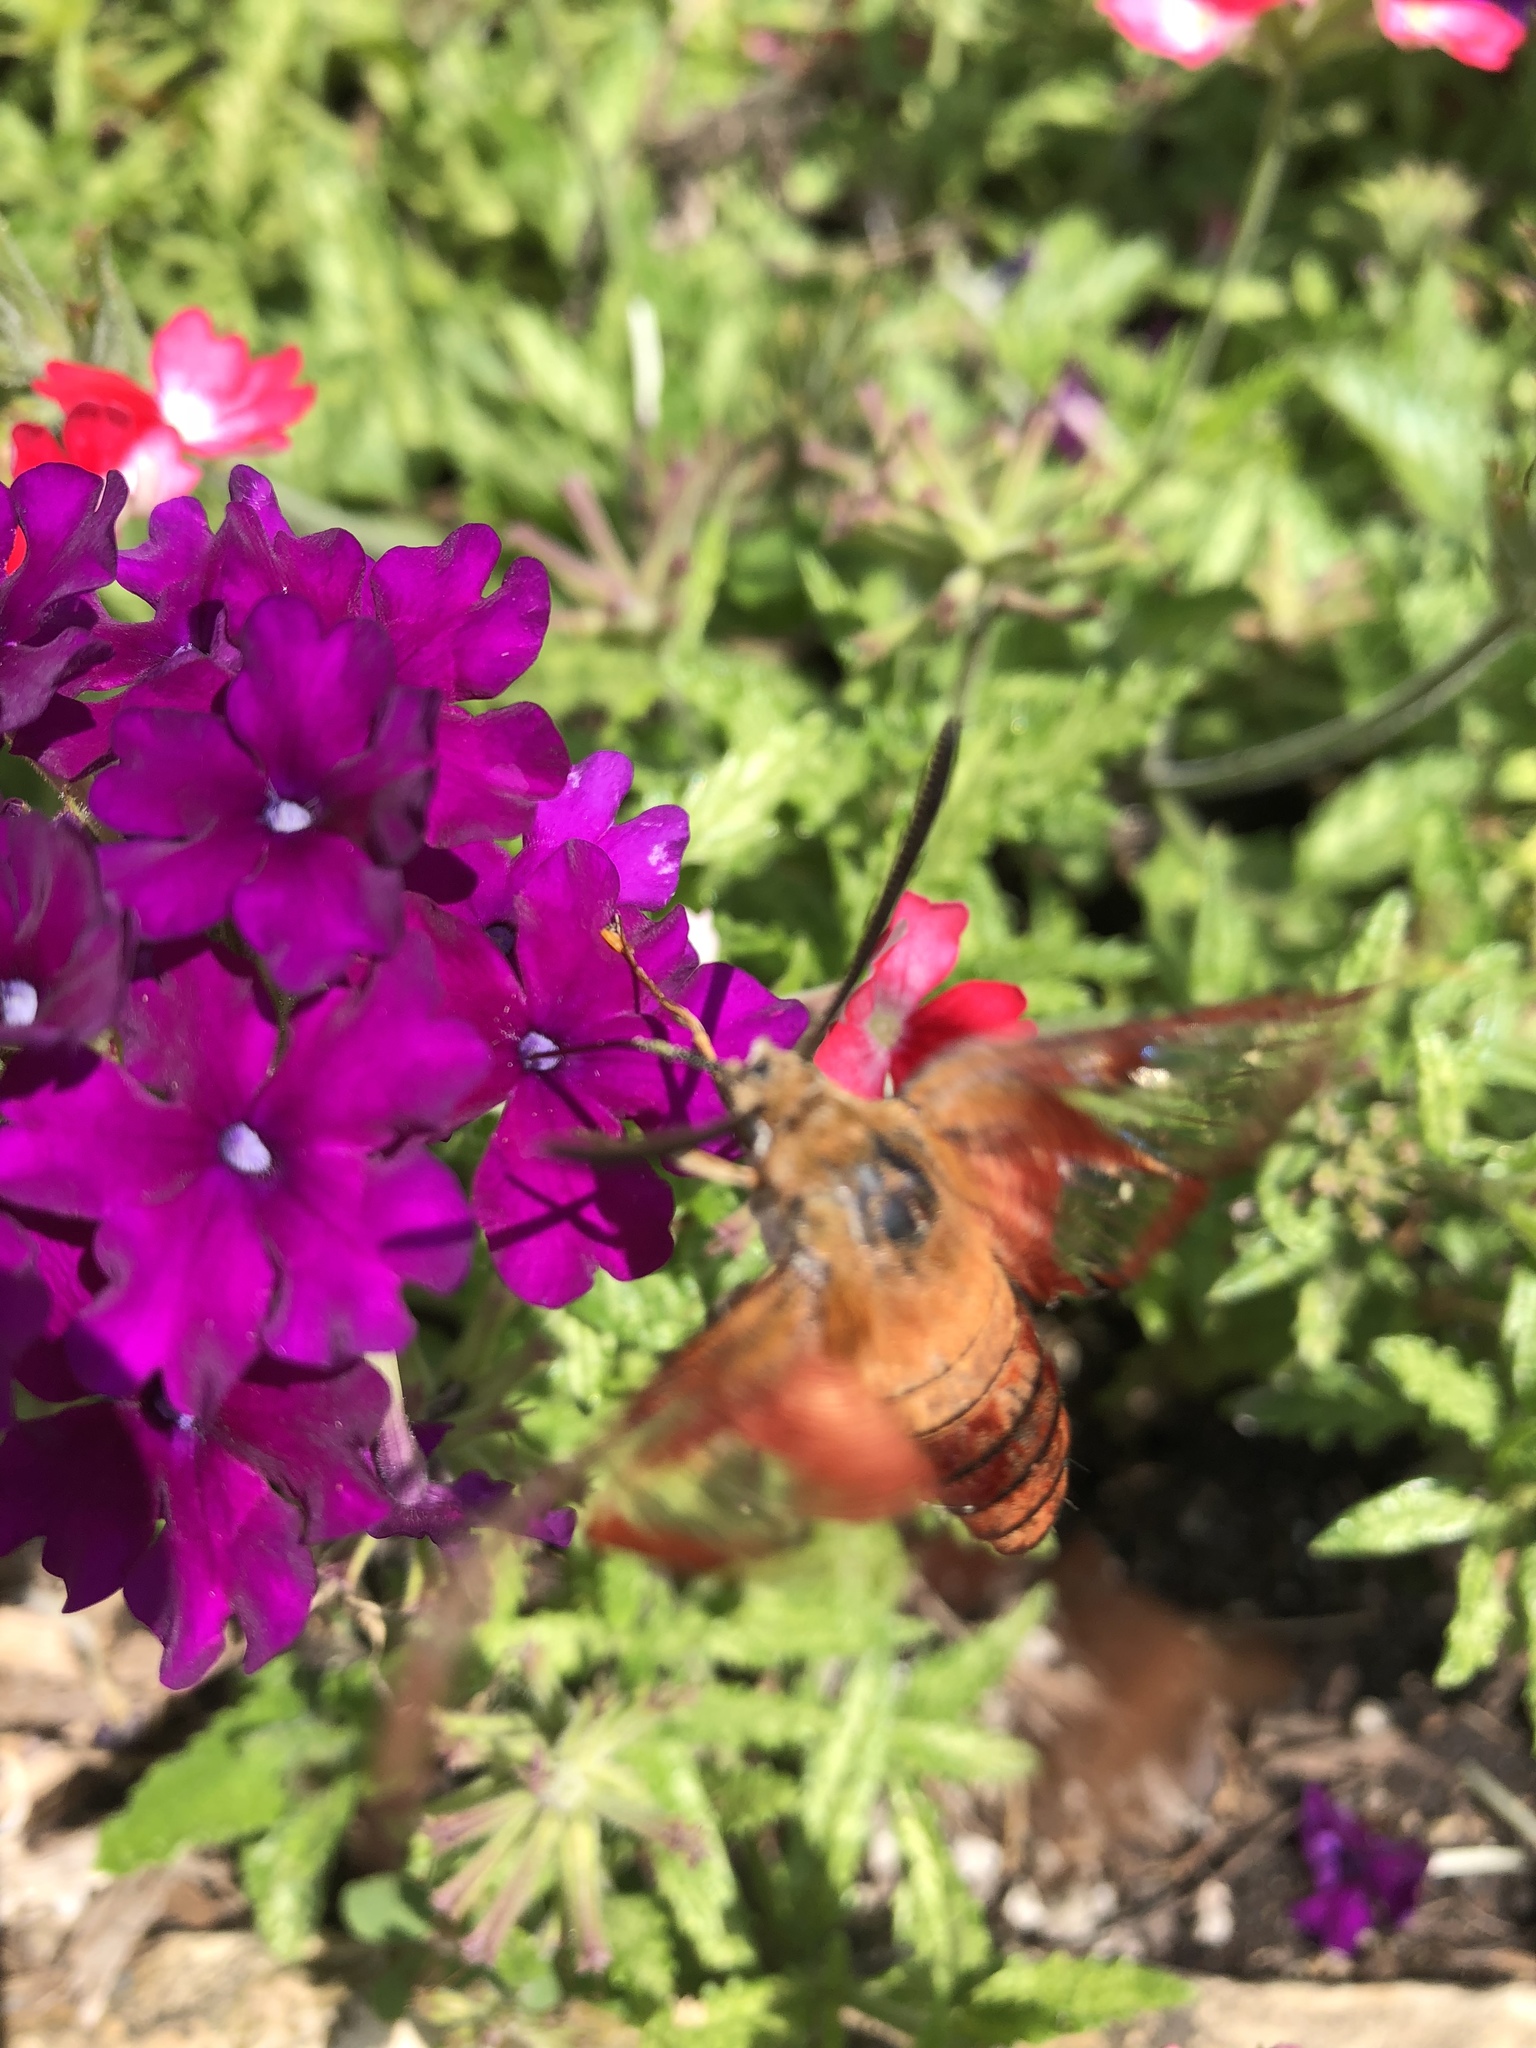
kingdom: Animalia
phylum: Arthropoda
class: Insecta
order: Lepidoptera
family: Sphingidae
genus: Hemaris
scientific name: Hemaris thysbe
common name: Common clear-wing
